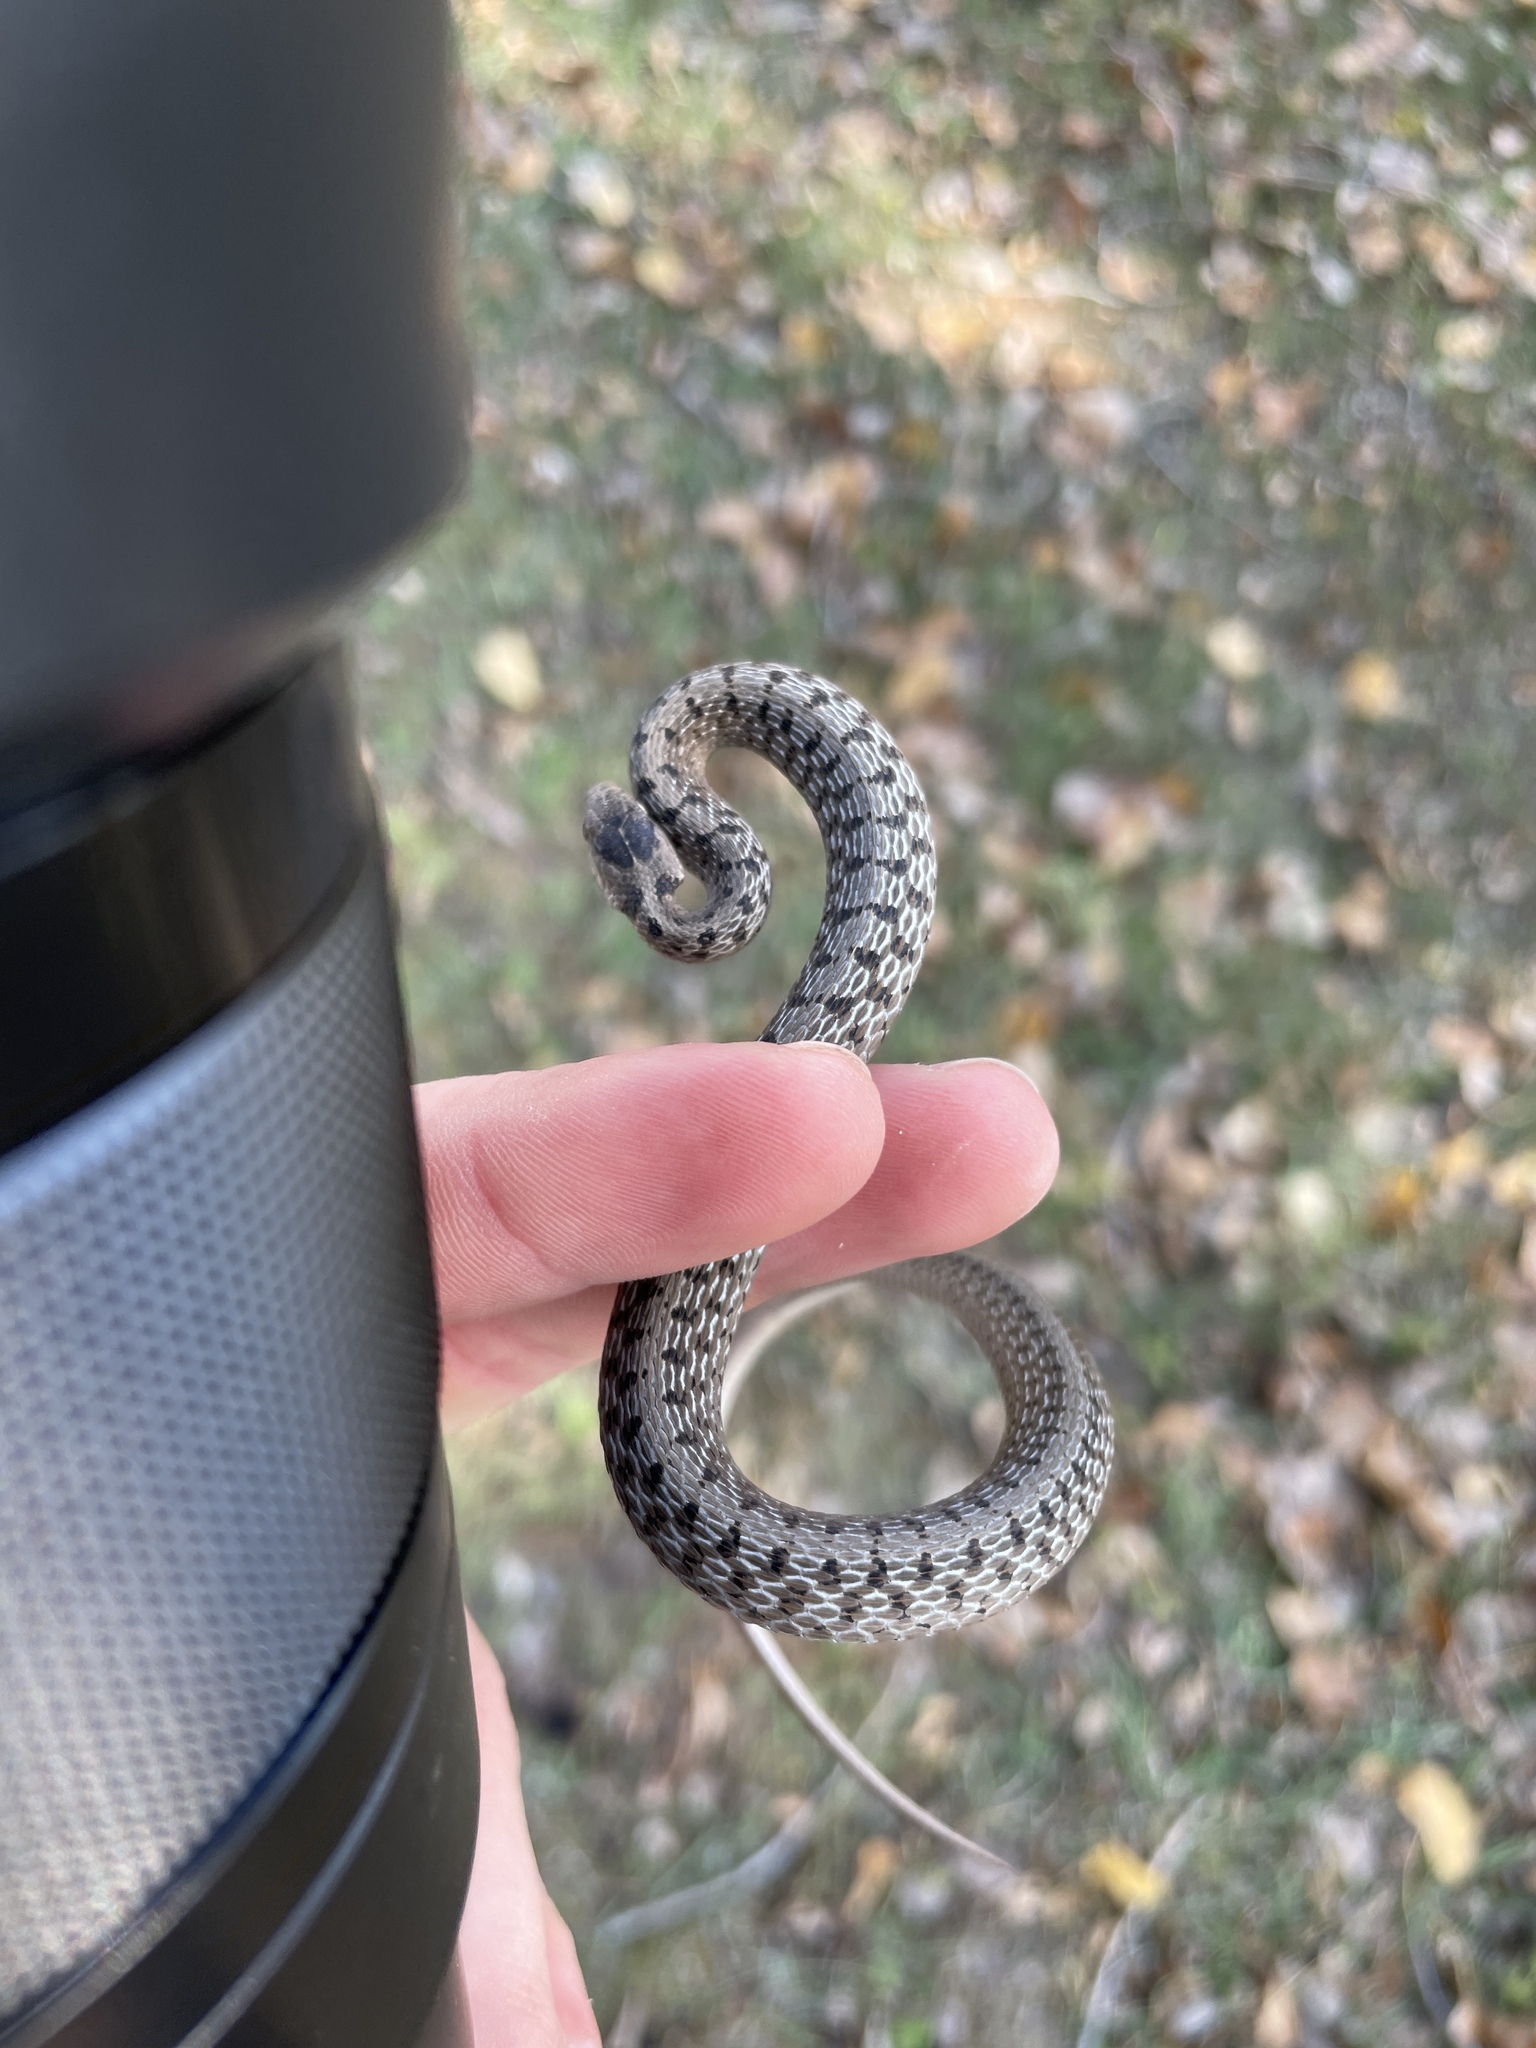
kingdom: Animalia
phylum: Chordata
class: Squamata
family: Colubridae
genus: Storeria
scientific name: Storeria dekayi
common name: (dekay’s) brown snake
